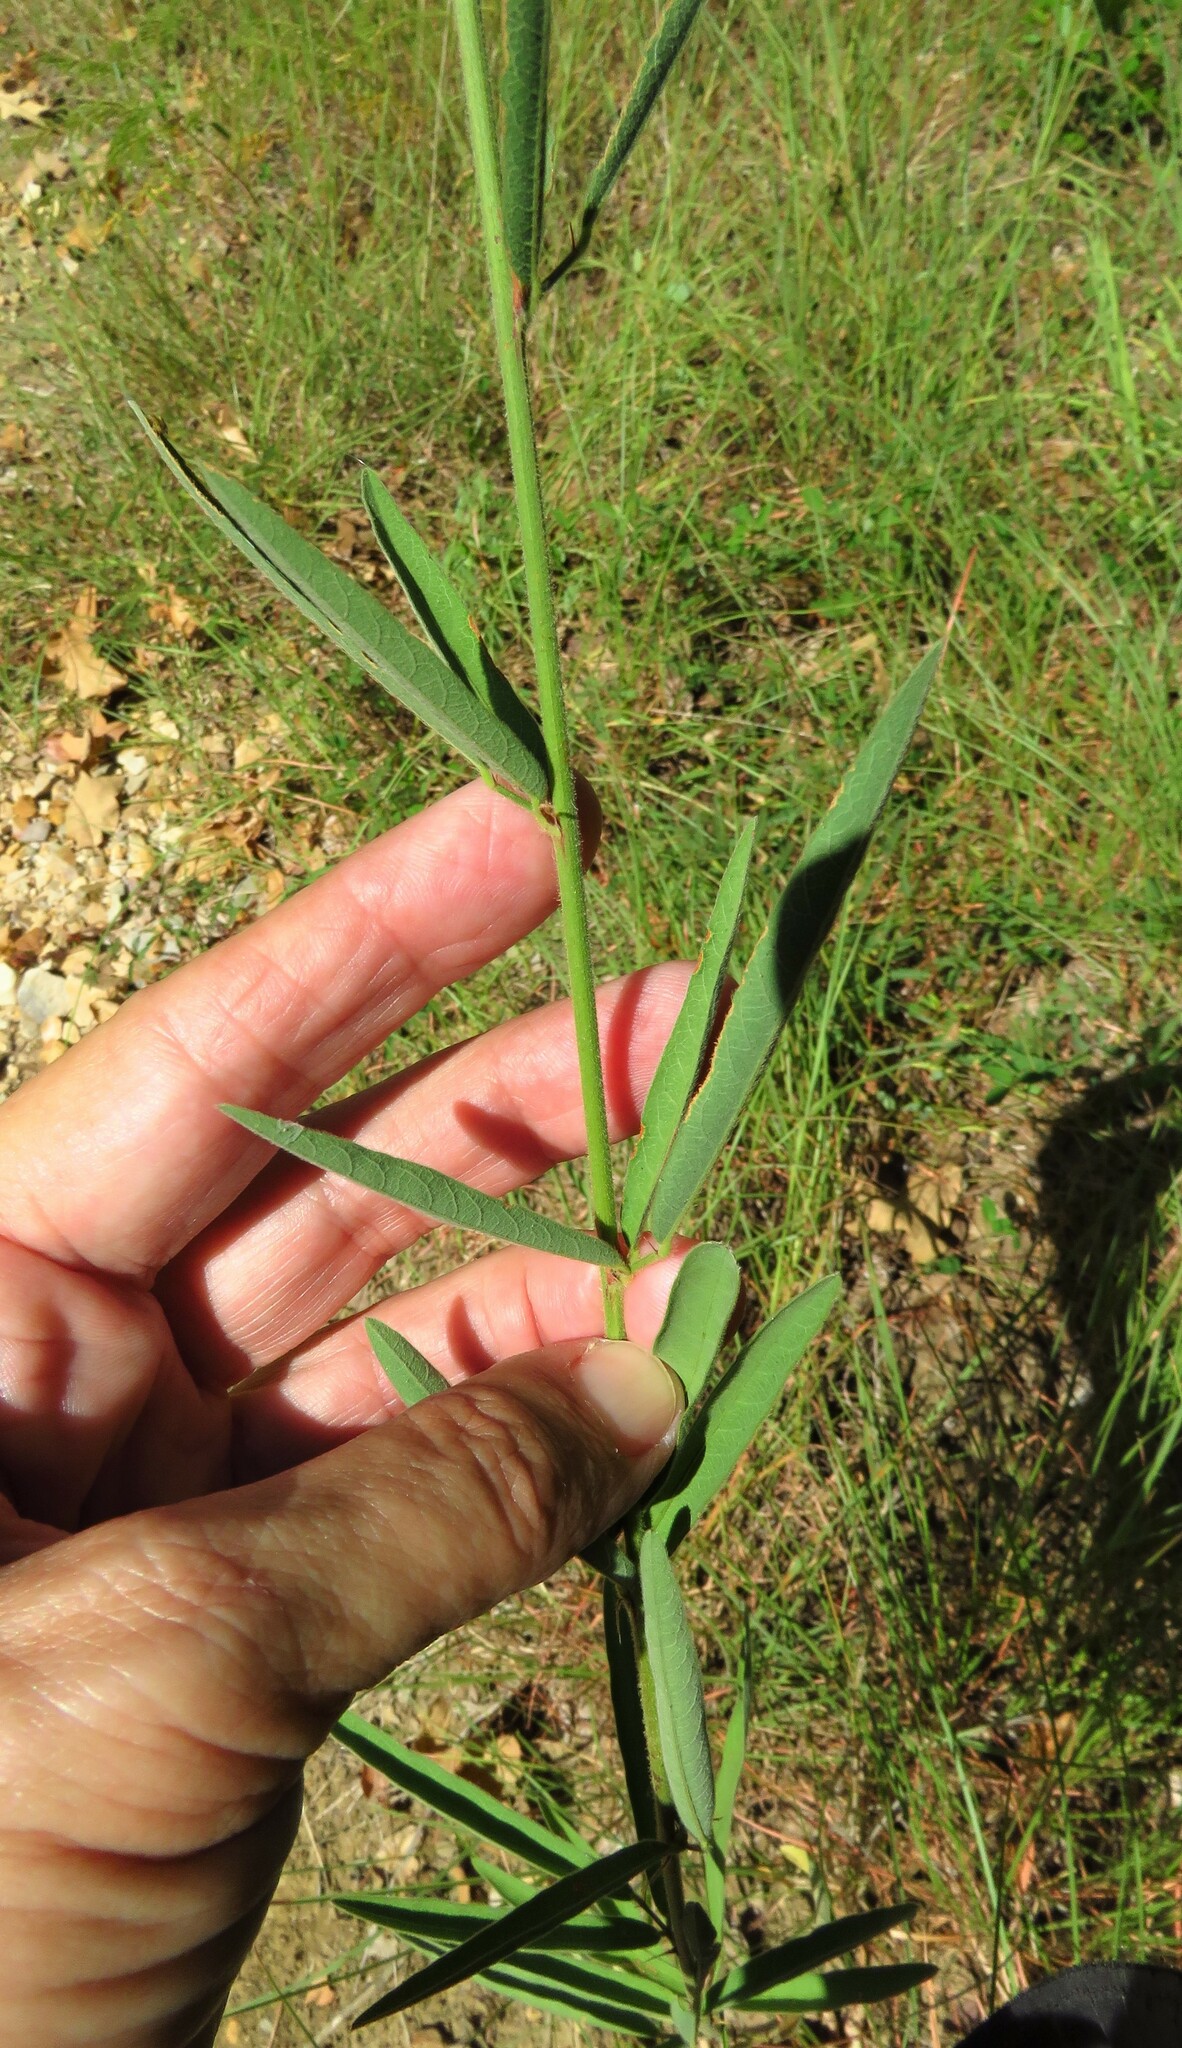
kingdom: Plantae
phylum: Tracheophyta
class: Magnoliopsida
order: Fabales
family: Fabaceae
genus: Desmodium
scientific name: Desmodium sessilifolium
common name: Sessile tick-clover
